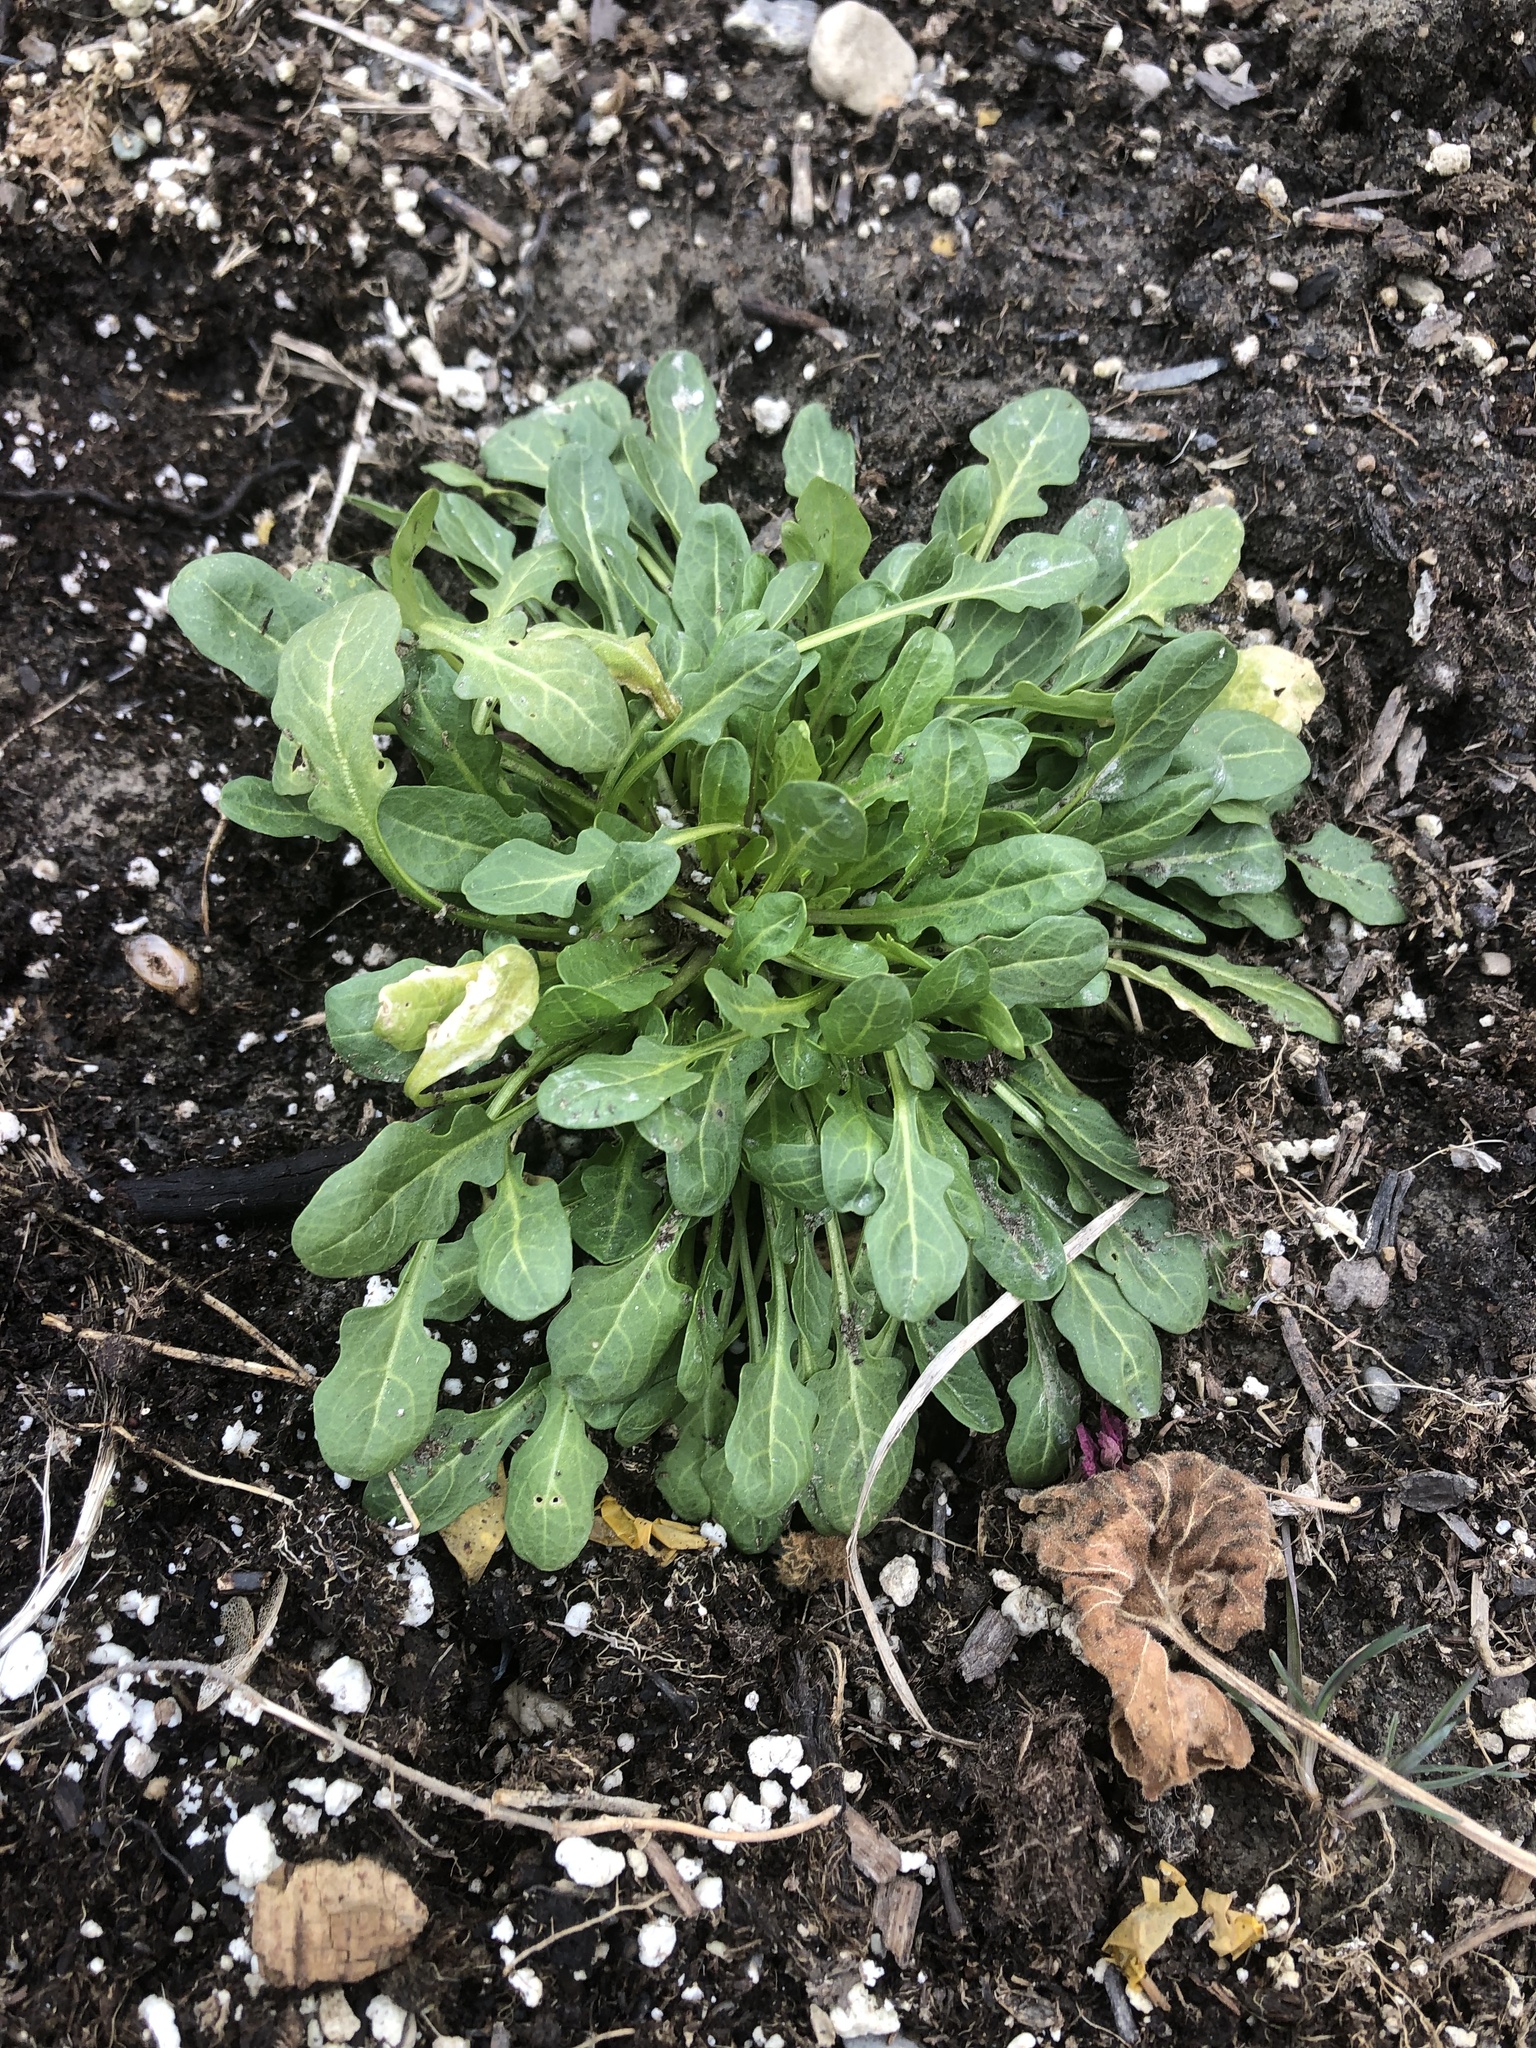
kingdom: Plantae
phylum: Tracheophyta
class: Magnoliopsida
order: Brassicales
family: Brassicaceae
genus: Thlaspi
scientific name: Thlaspi arvense
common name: Field pennycress
